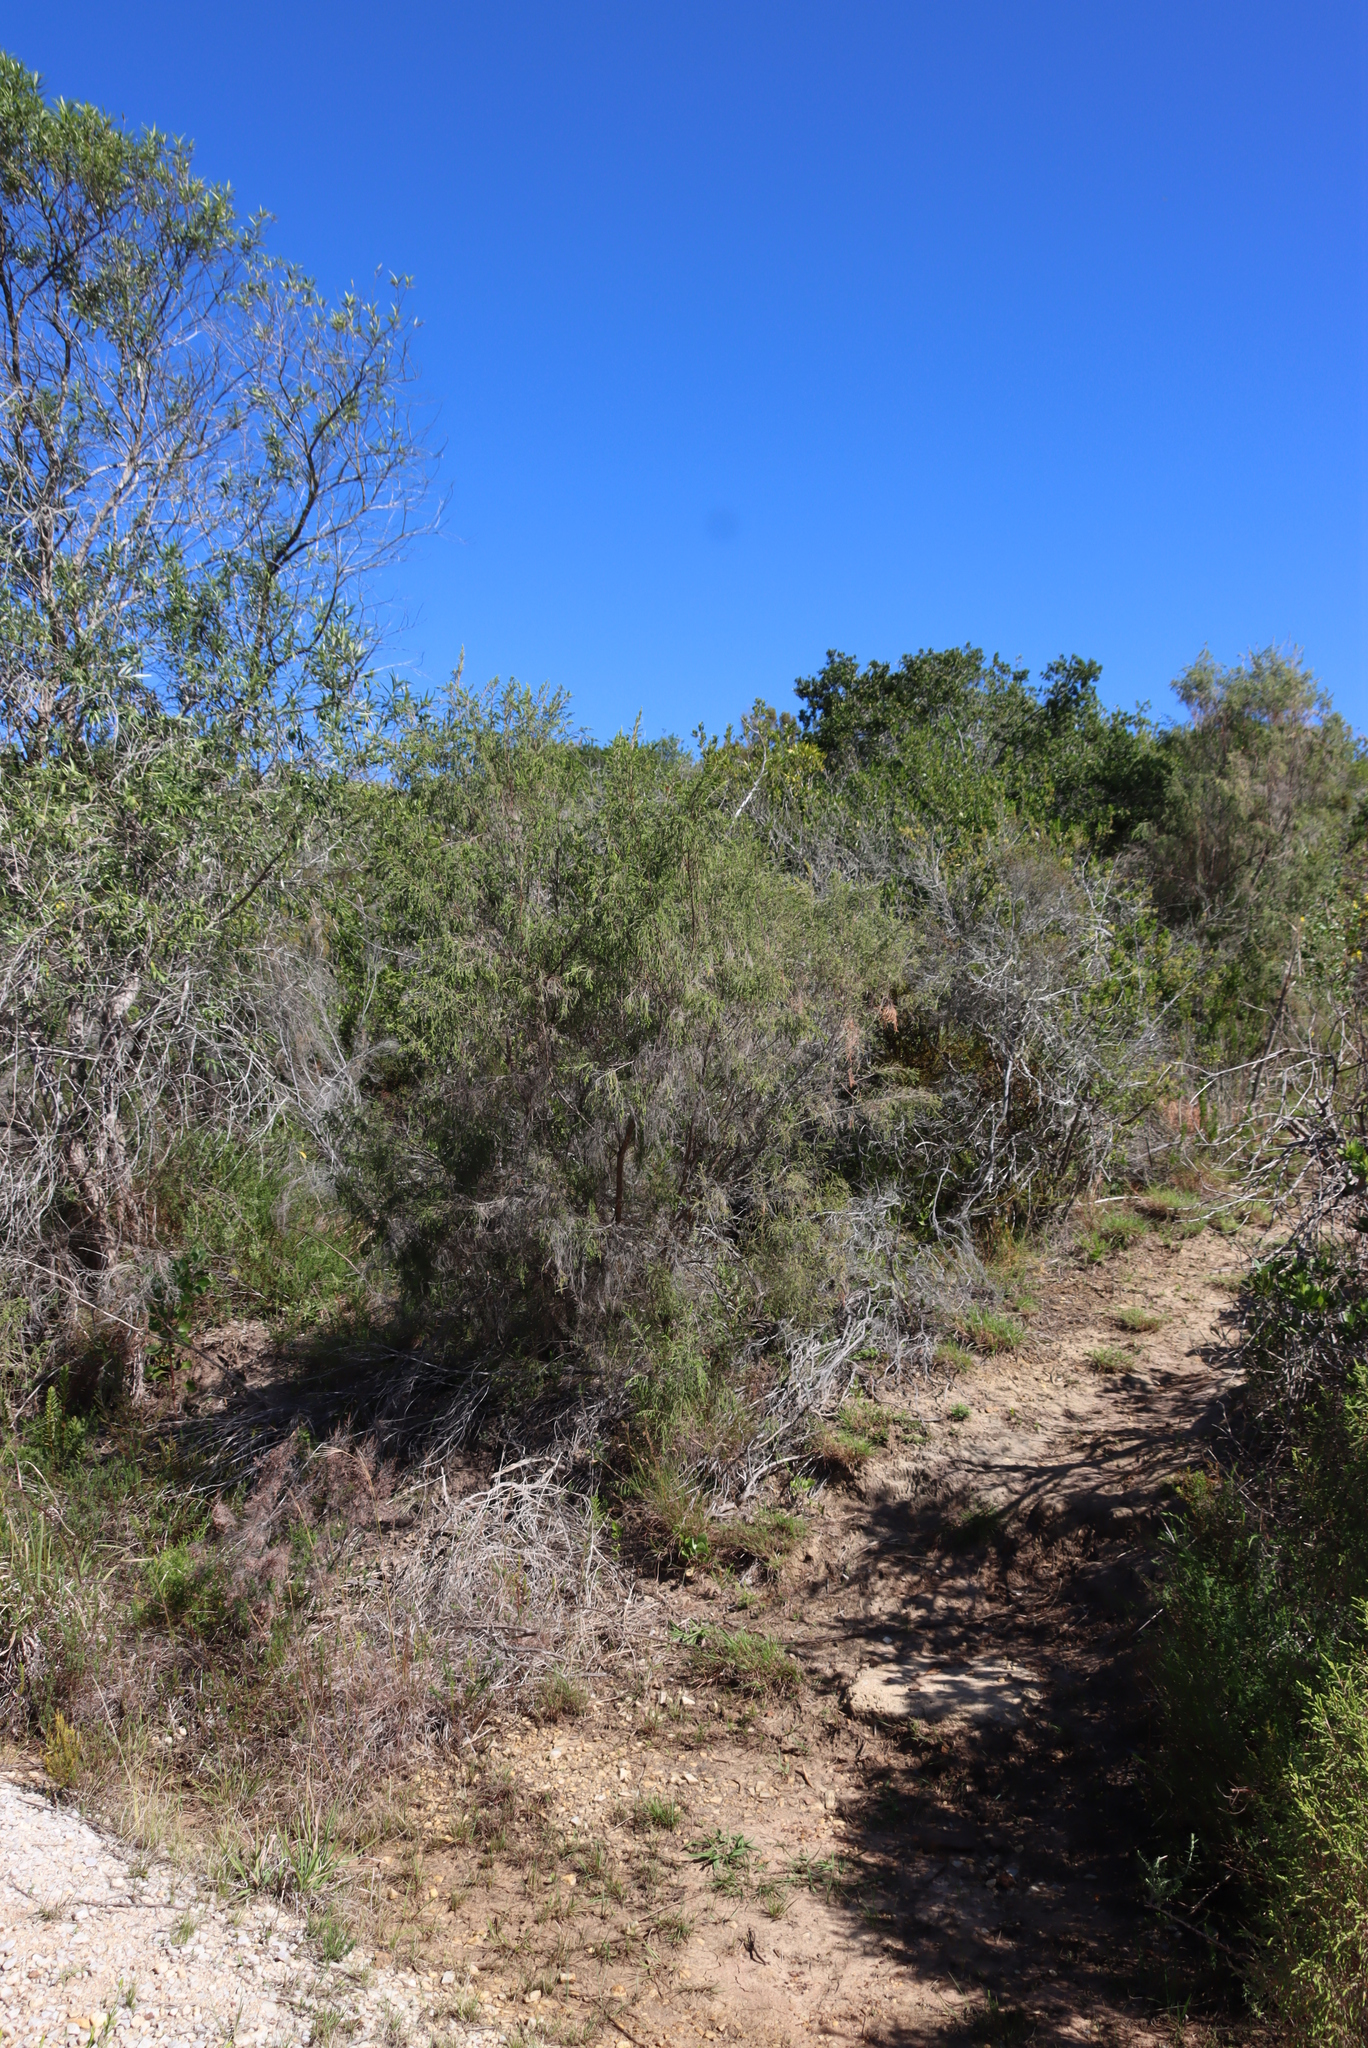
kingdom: Plantae
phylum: Tracheophyta
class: Magnoliopsida
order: Malvales
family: Thymelaeaceae
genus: Passerina
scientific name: Passerina falcifolia
